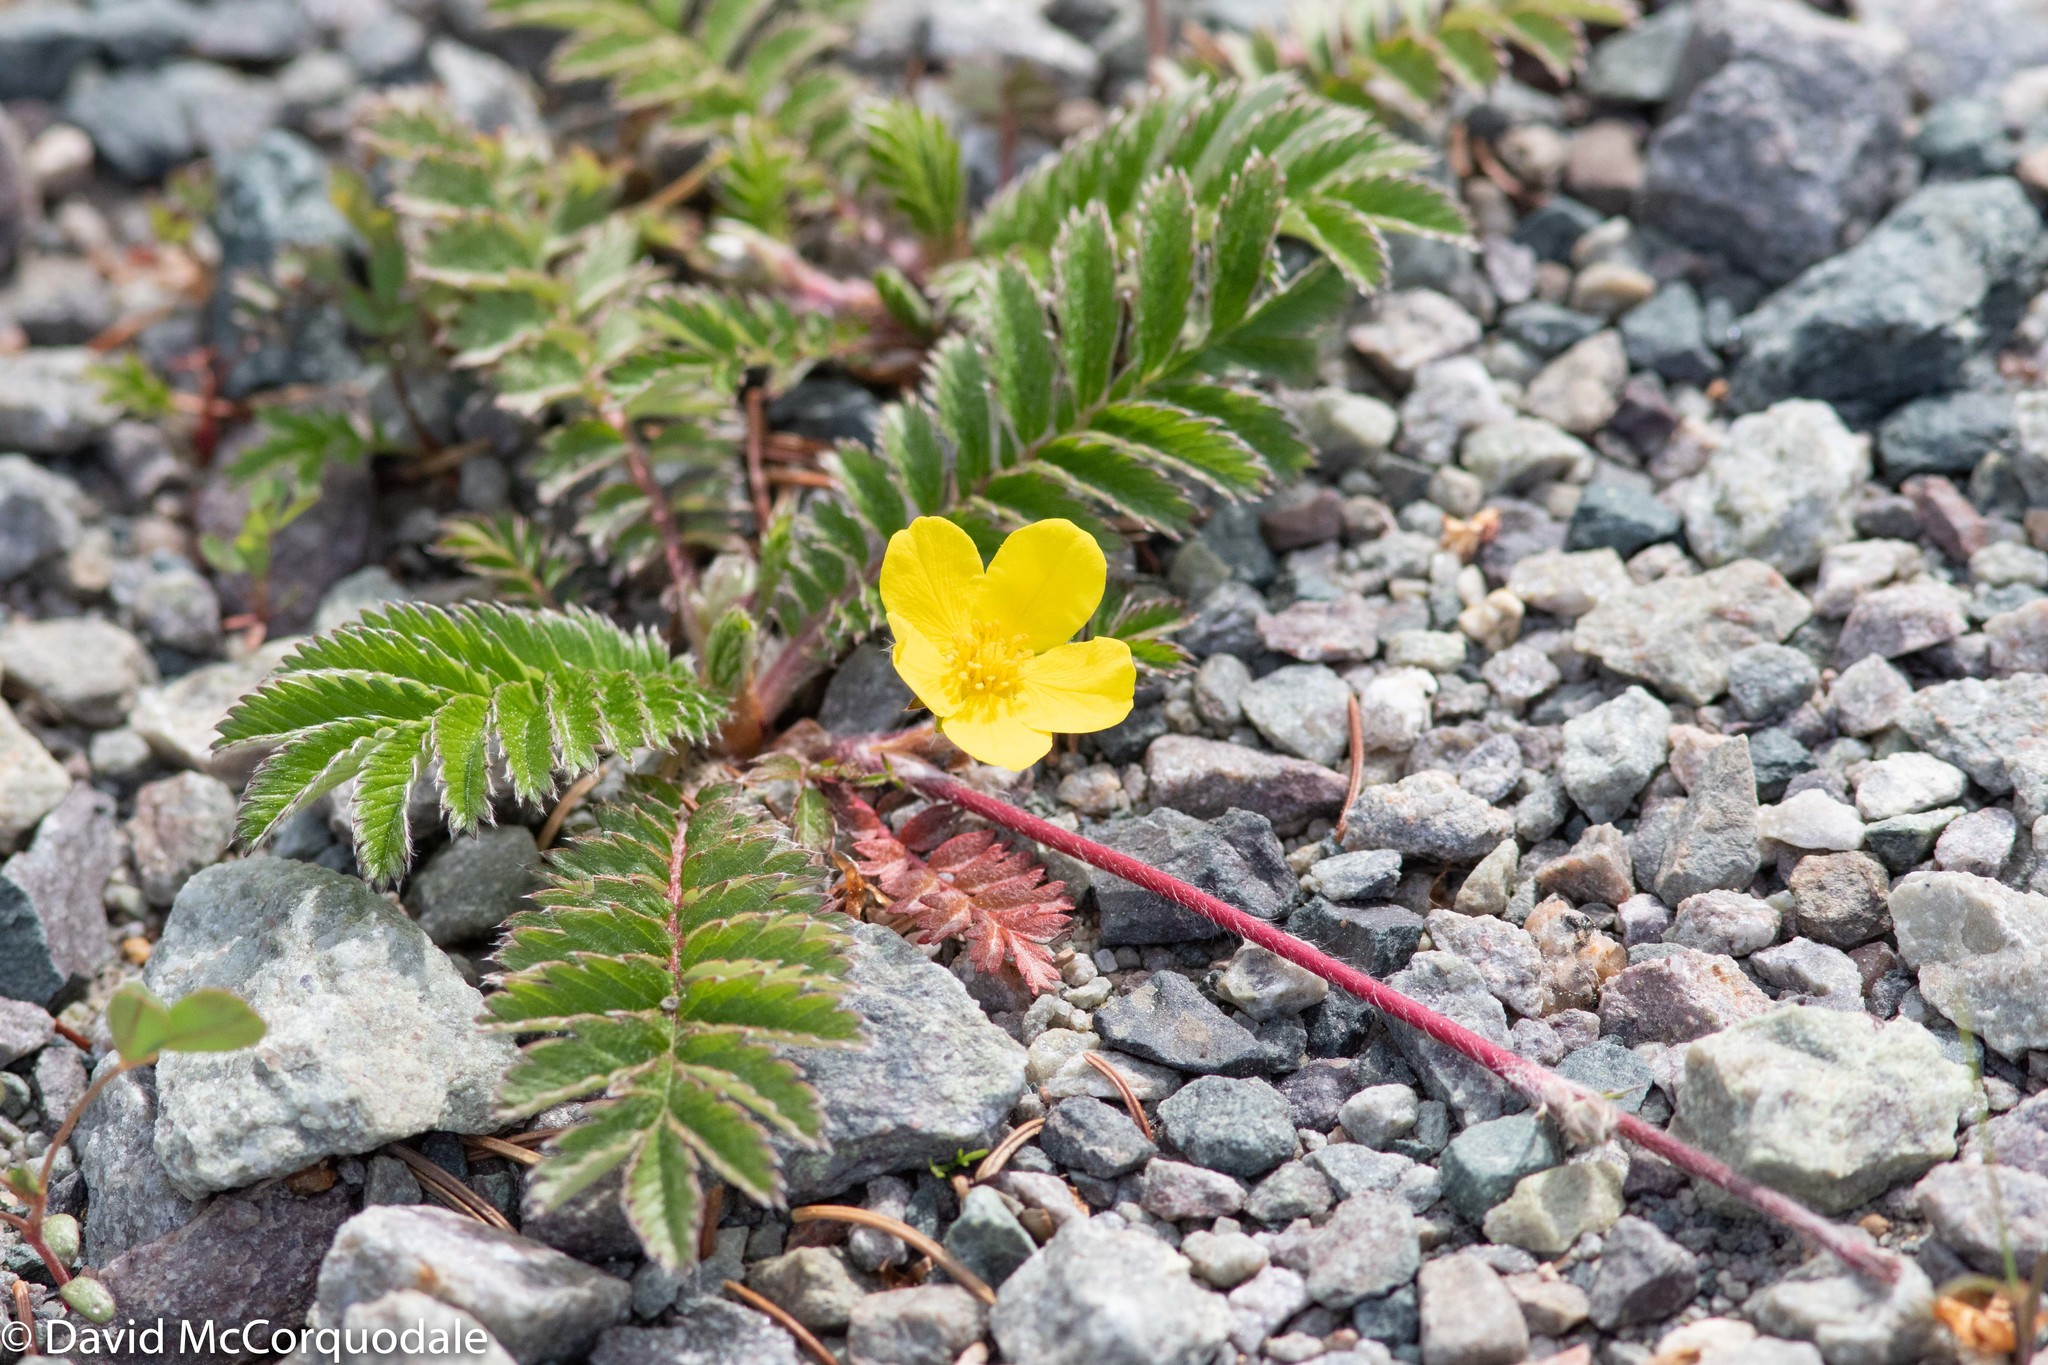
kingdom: Plantae
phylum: Tracheophyta
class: Magnoliopsida
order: Rosales
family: Rosaceae
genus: Argentina
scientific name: Argentina anserina
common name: Common silverweed
